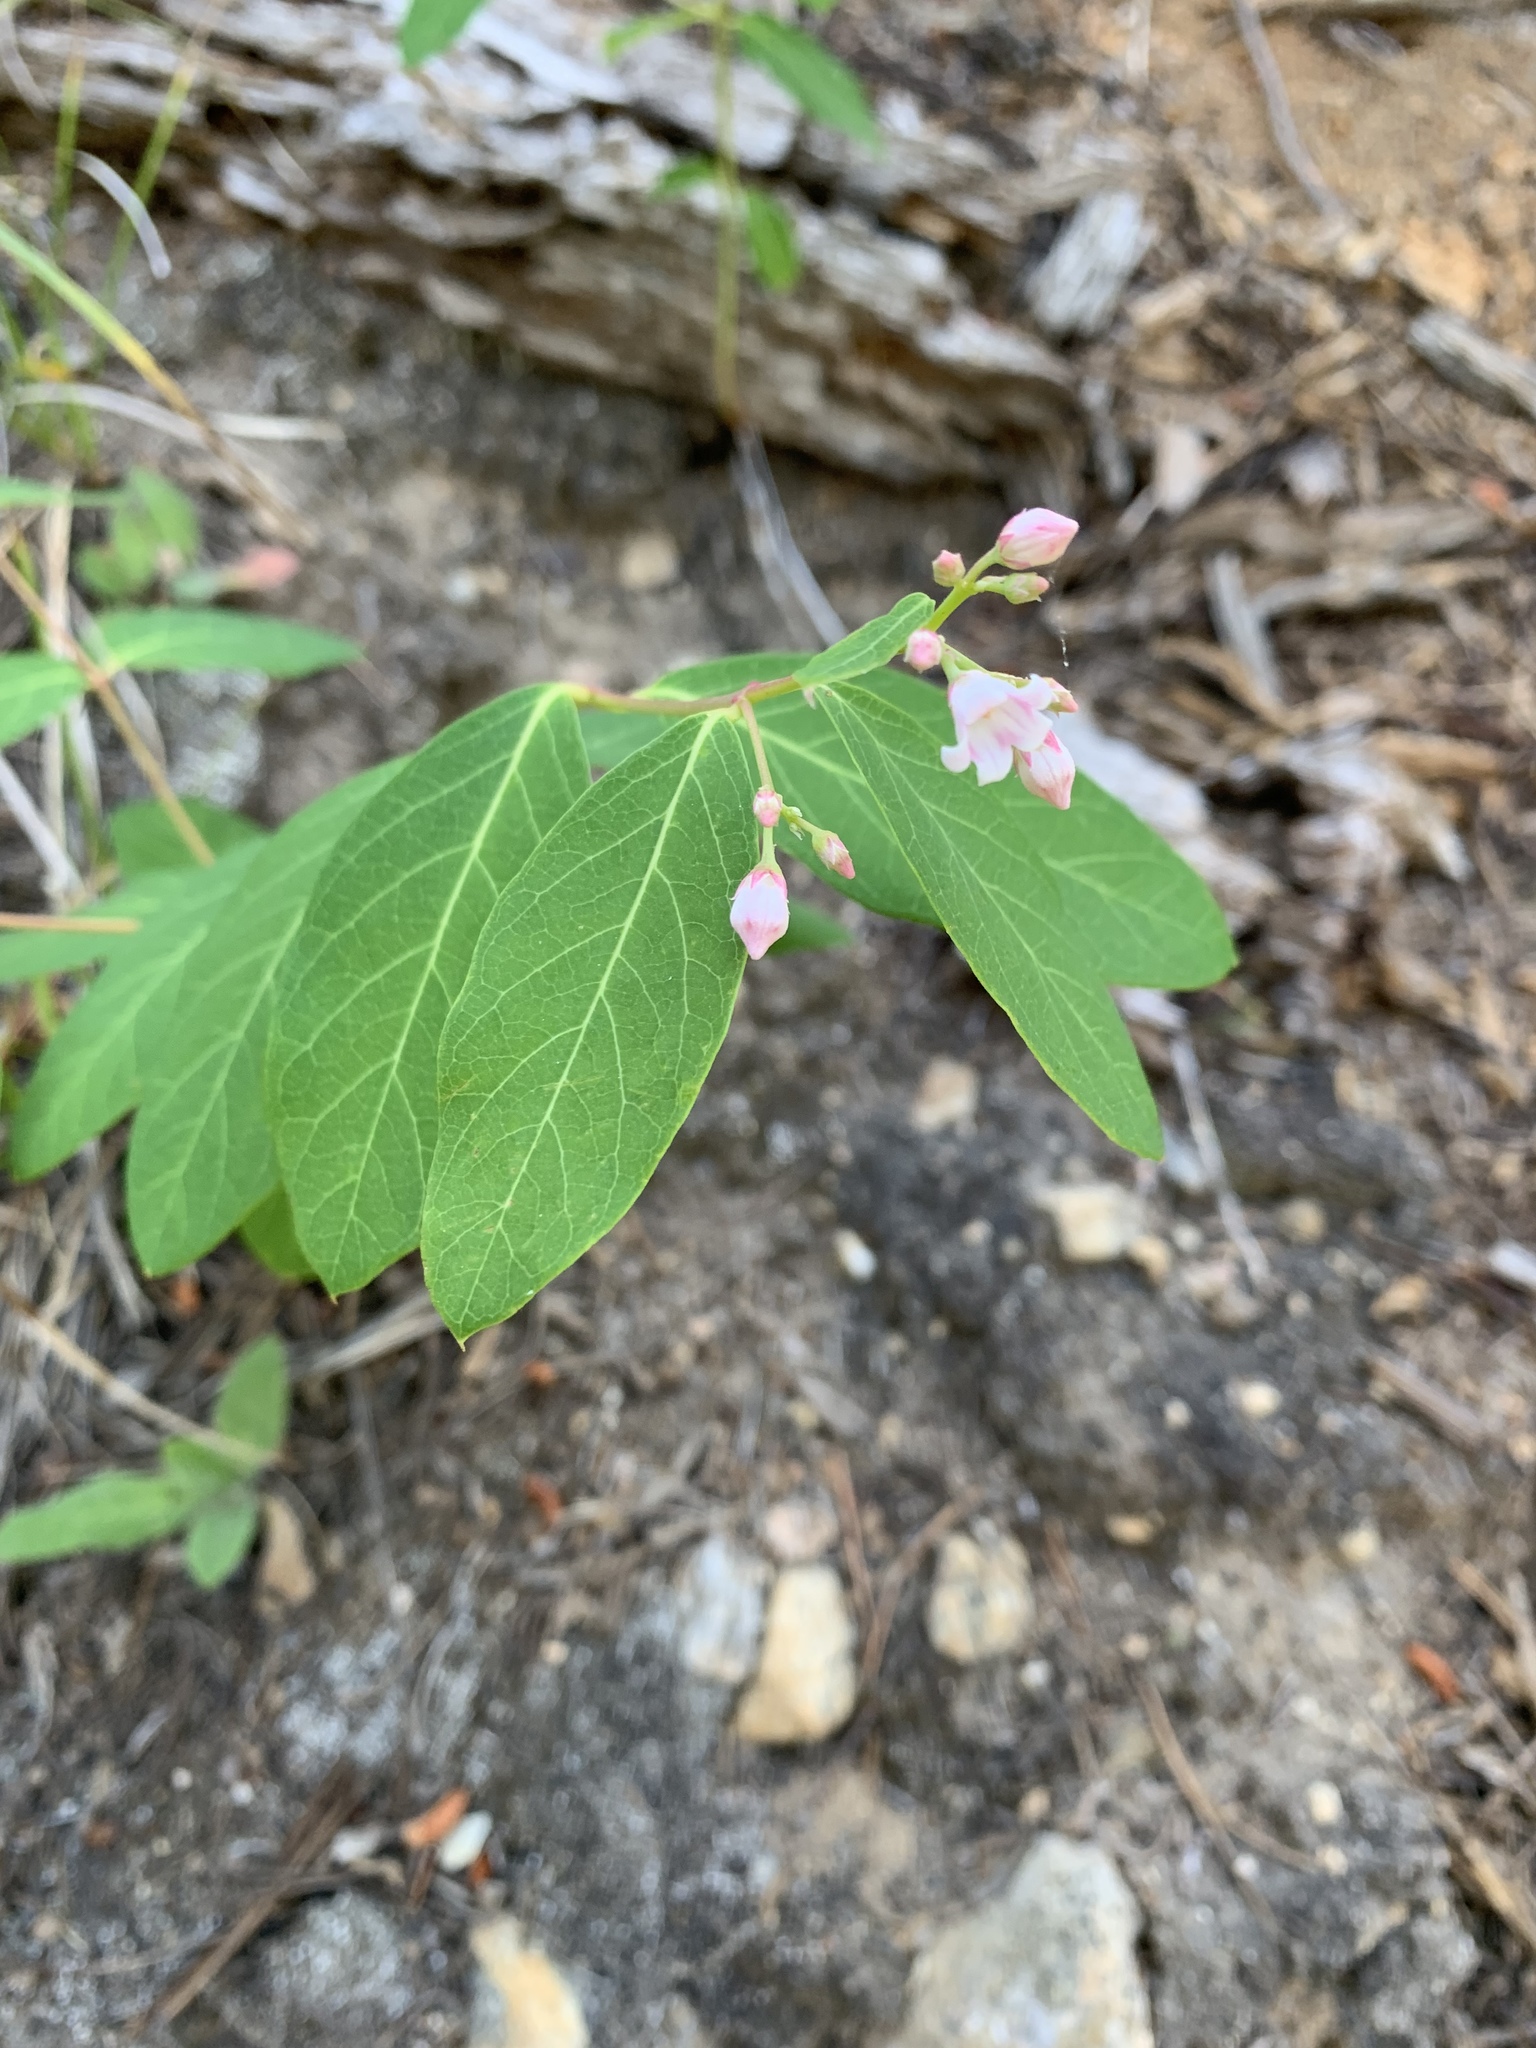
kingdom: Plantae
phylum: Tracheophyta
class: Magnoliopsida
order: Gentianales
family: Apocynaceae
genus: Apocynum
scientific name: Apocynum androsaemifolium
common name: Spreading dogbane
